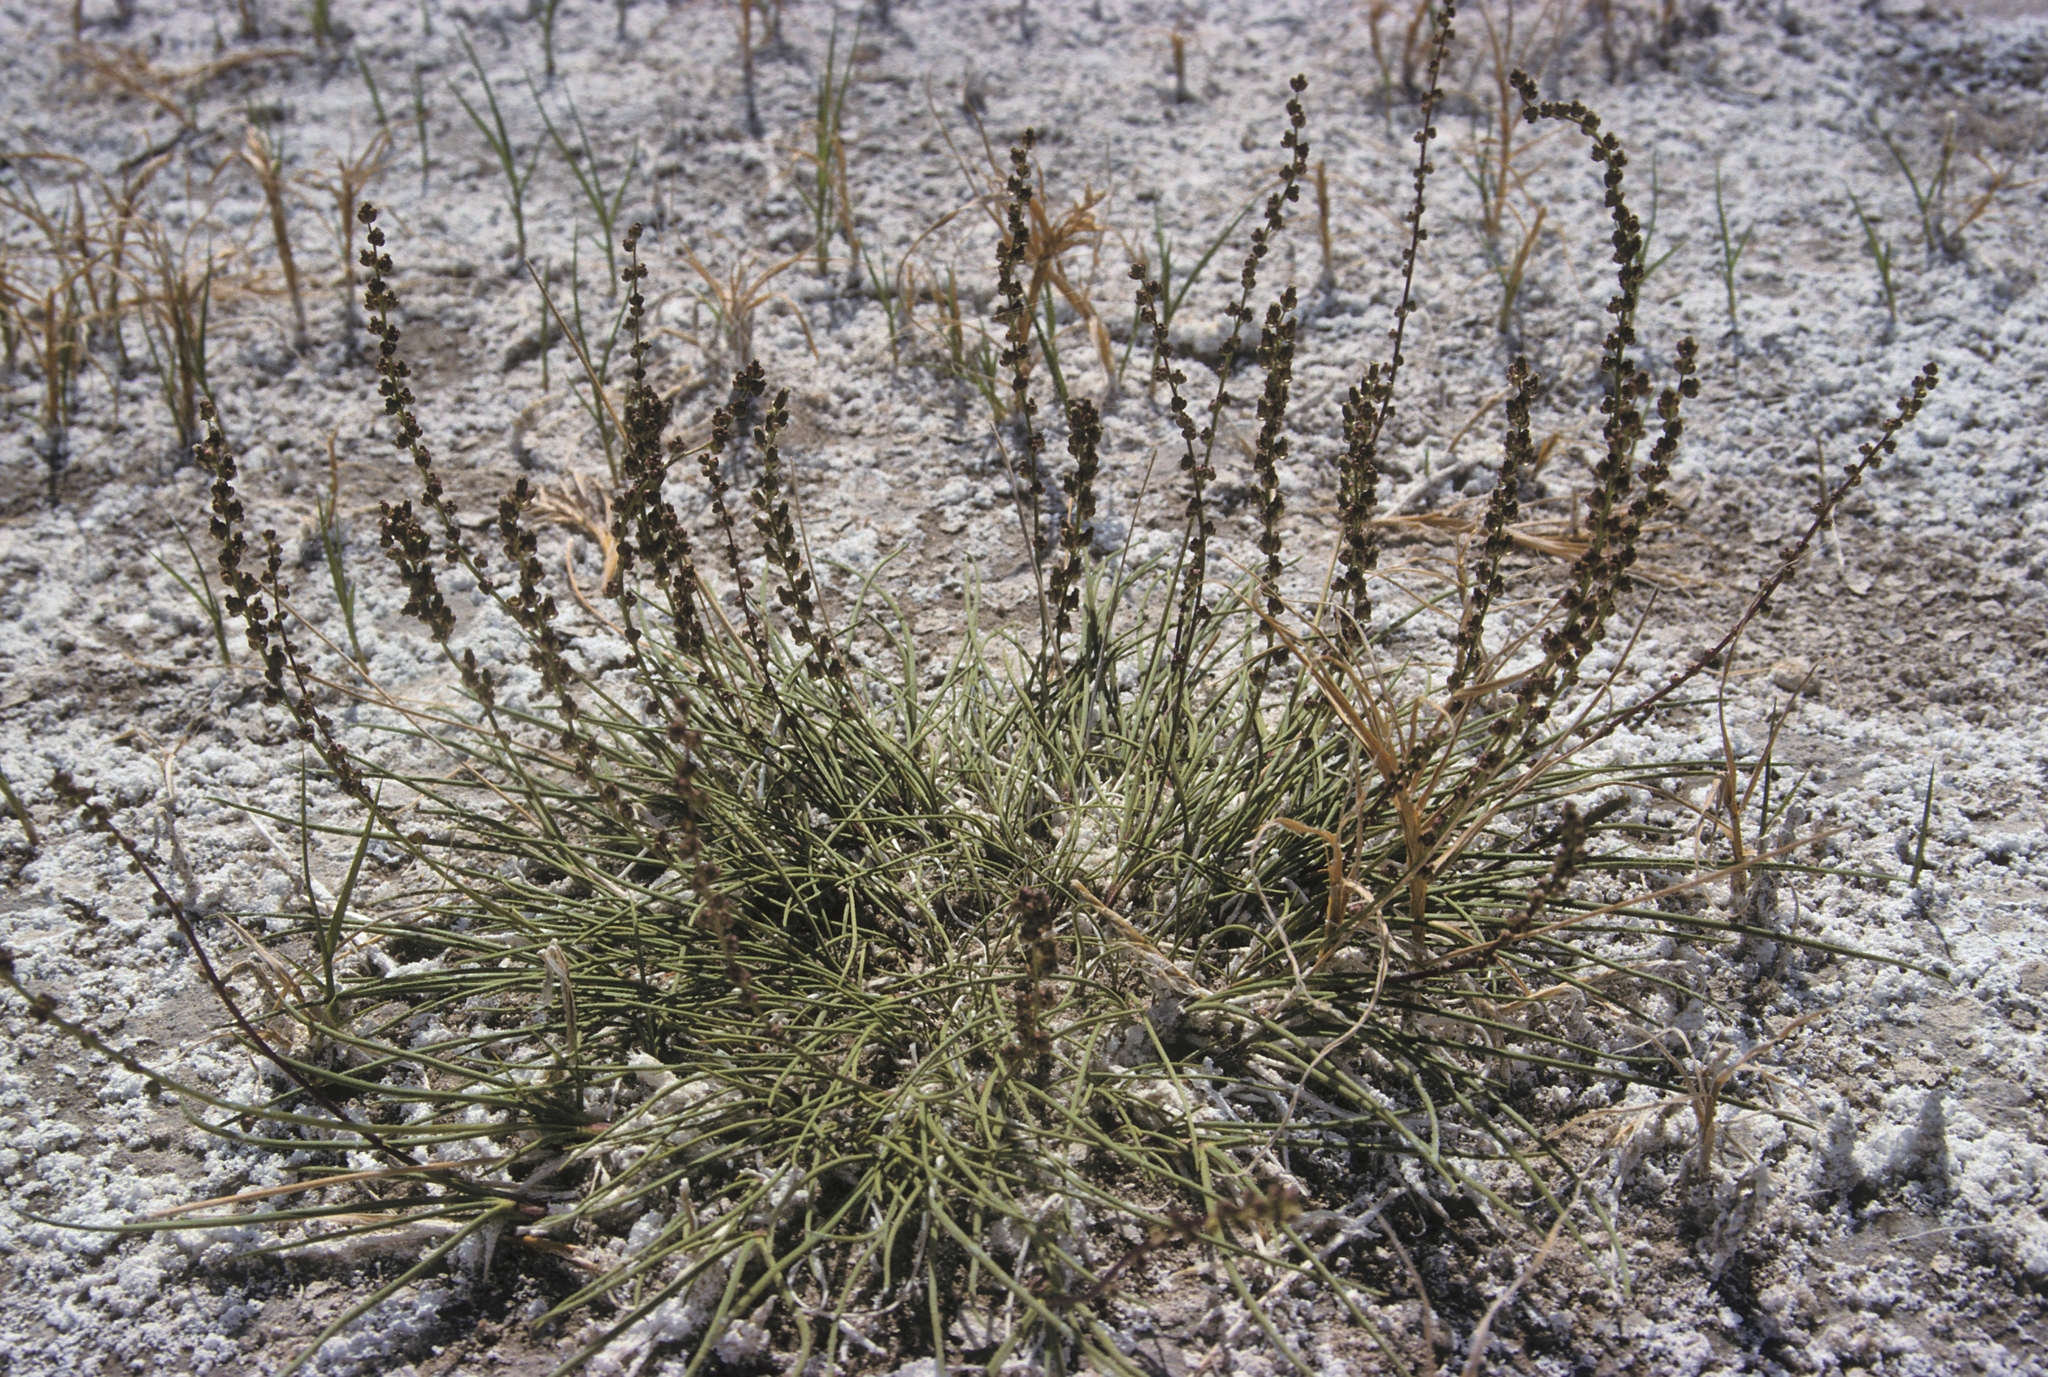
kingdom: Plantae
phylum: Tracheophyta
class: Liliopsida
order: Alismatales
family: Juncaginaceae
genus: Triglochin
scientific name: Triglochin maritima
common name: Sea arrowgrass
